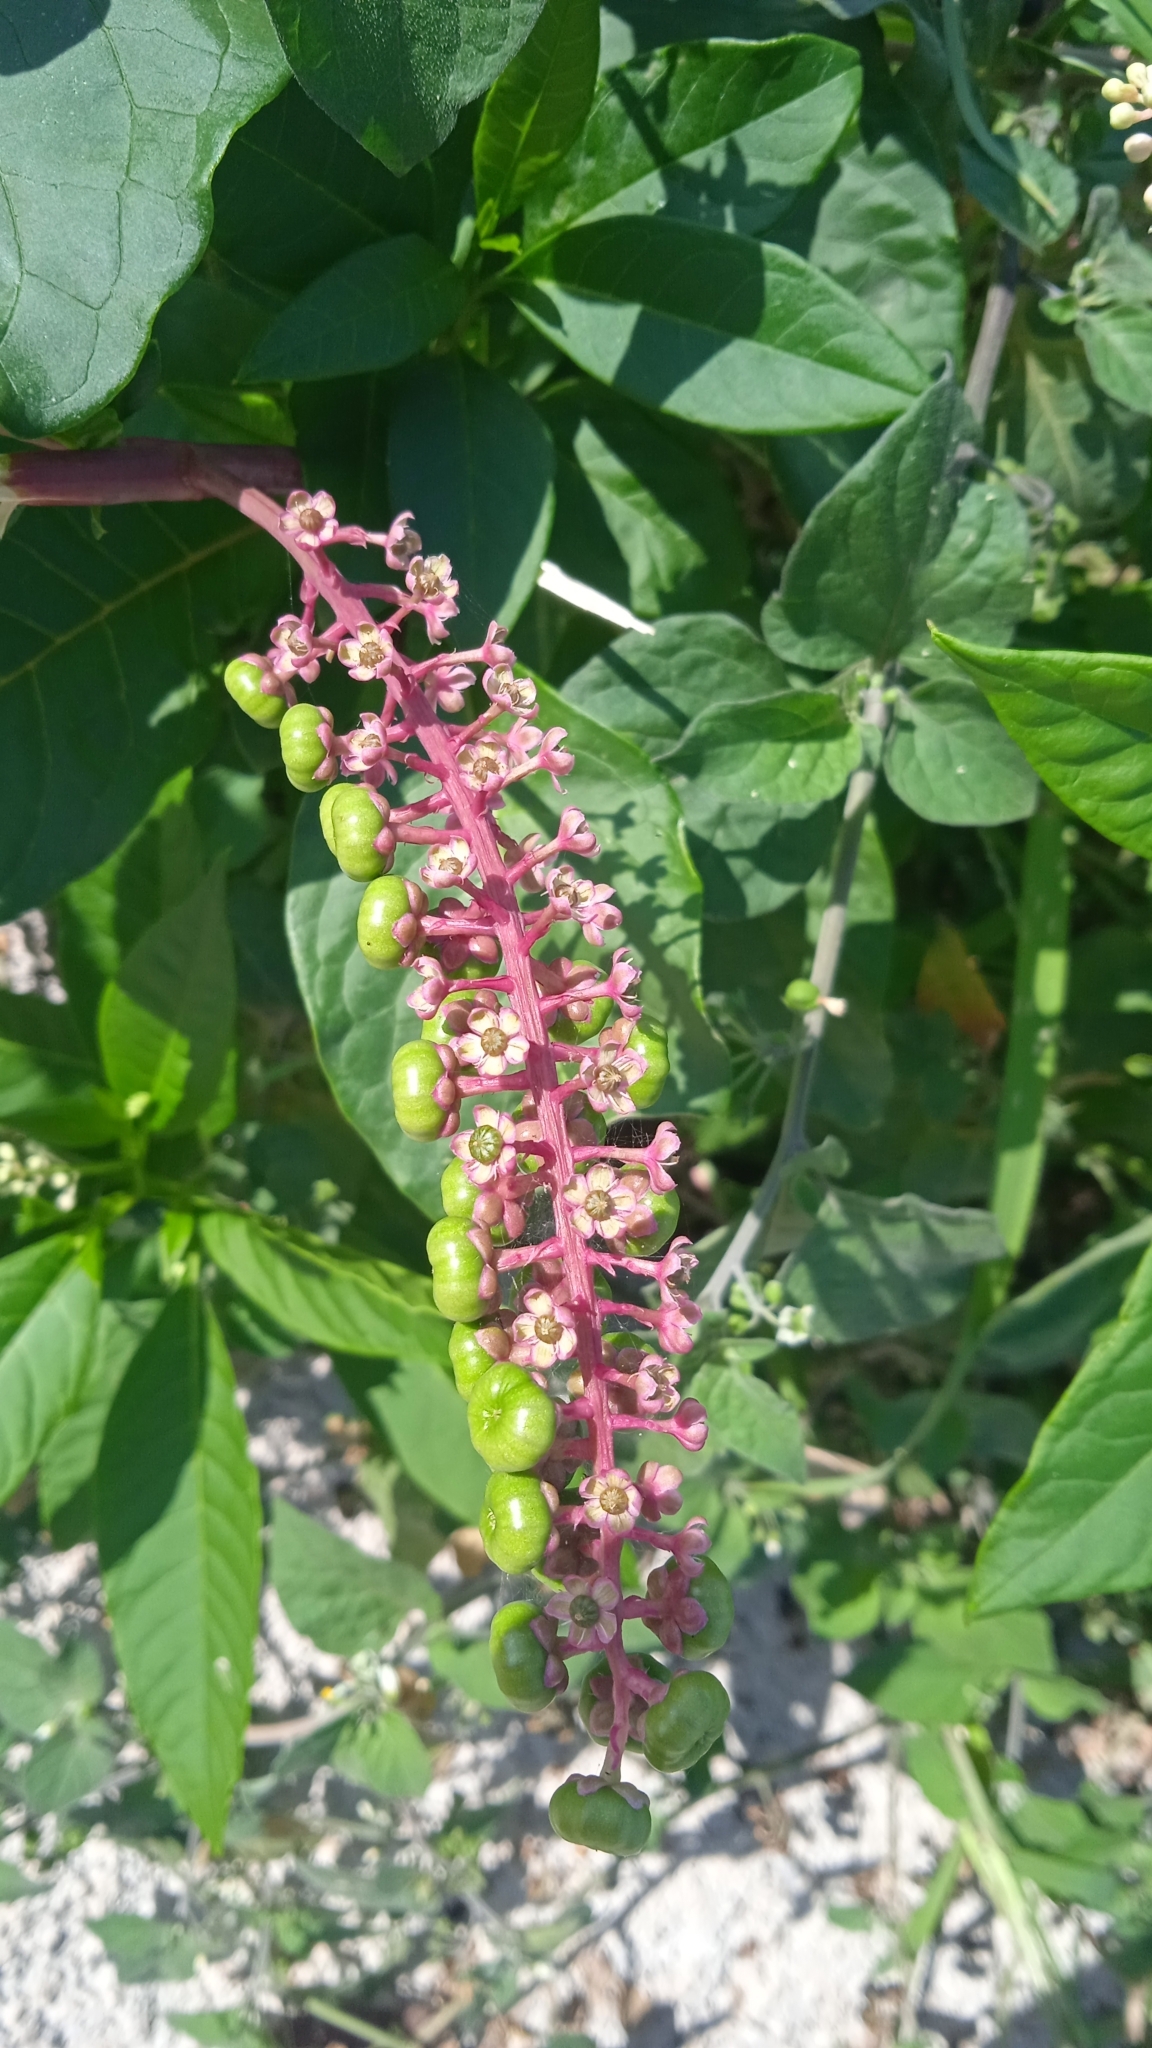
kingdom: Plantae
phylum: Tracheophyta
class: Magnoliopsida
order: Caryophyllales
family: Phytolaccaceae
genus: Phytolacca
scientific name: Phytolacca americana
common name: American pokeweed
